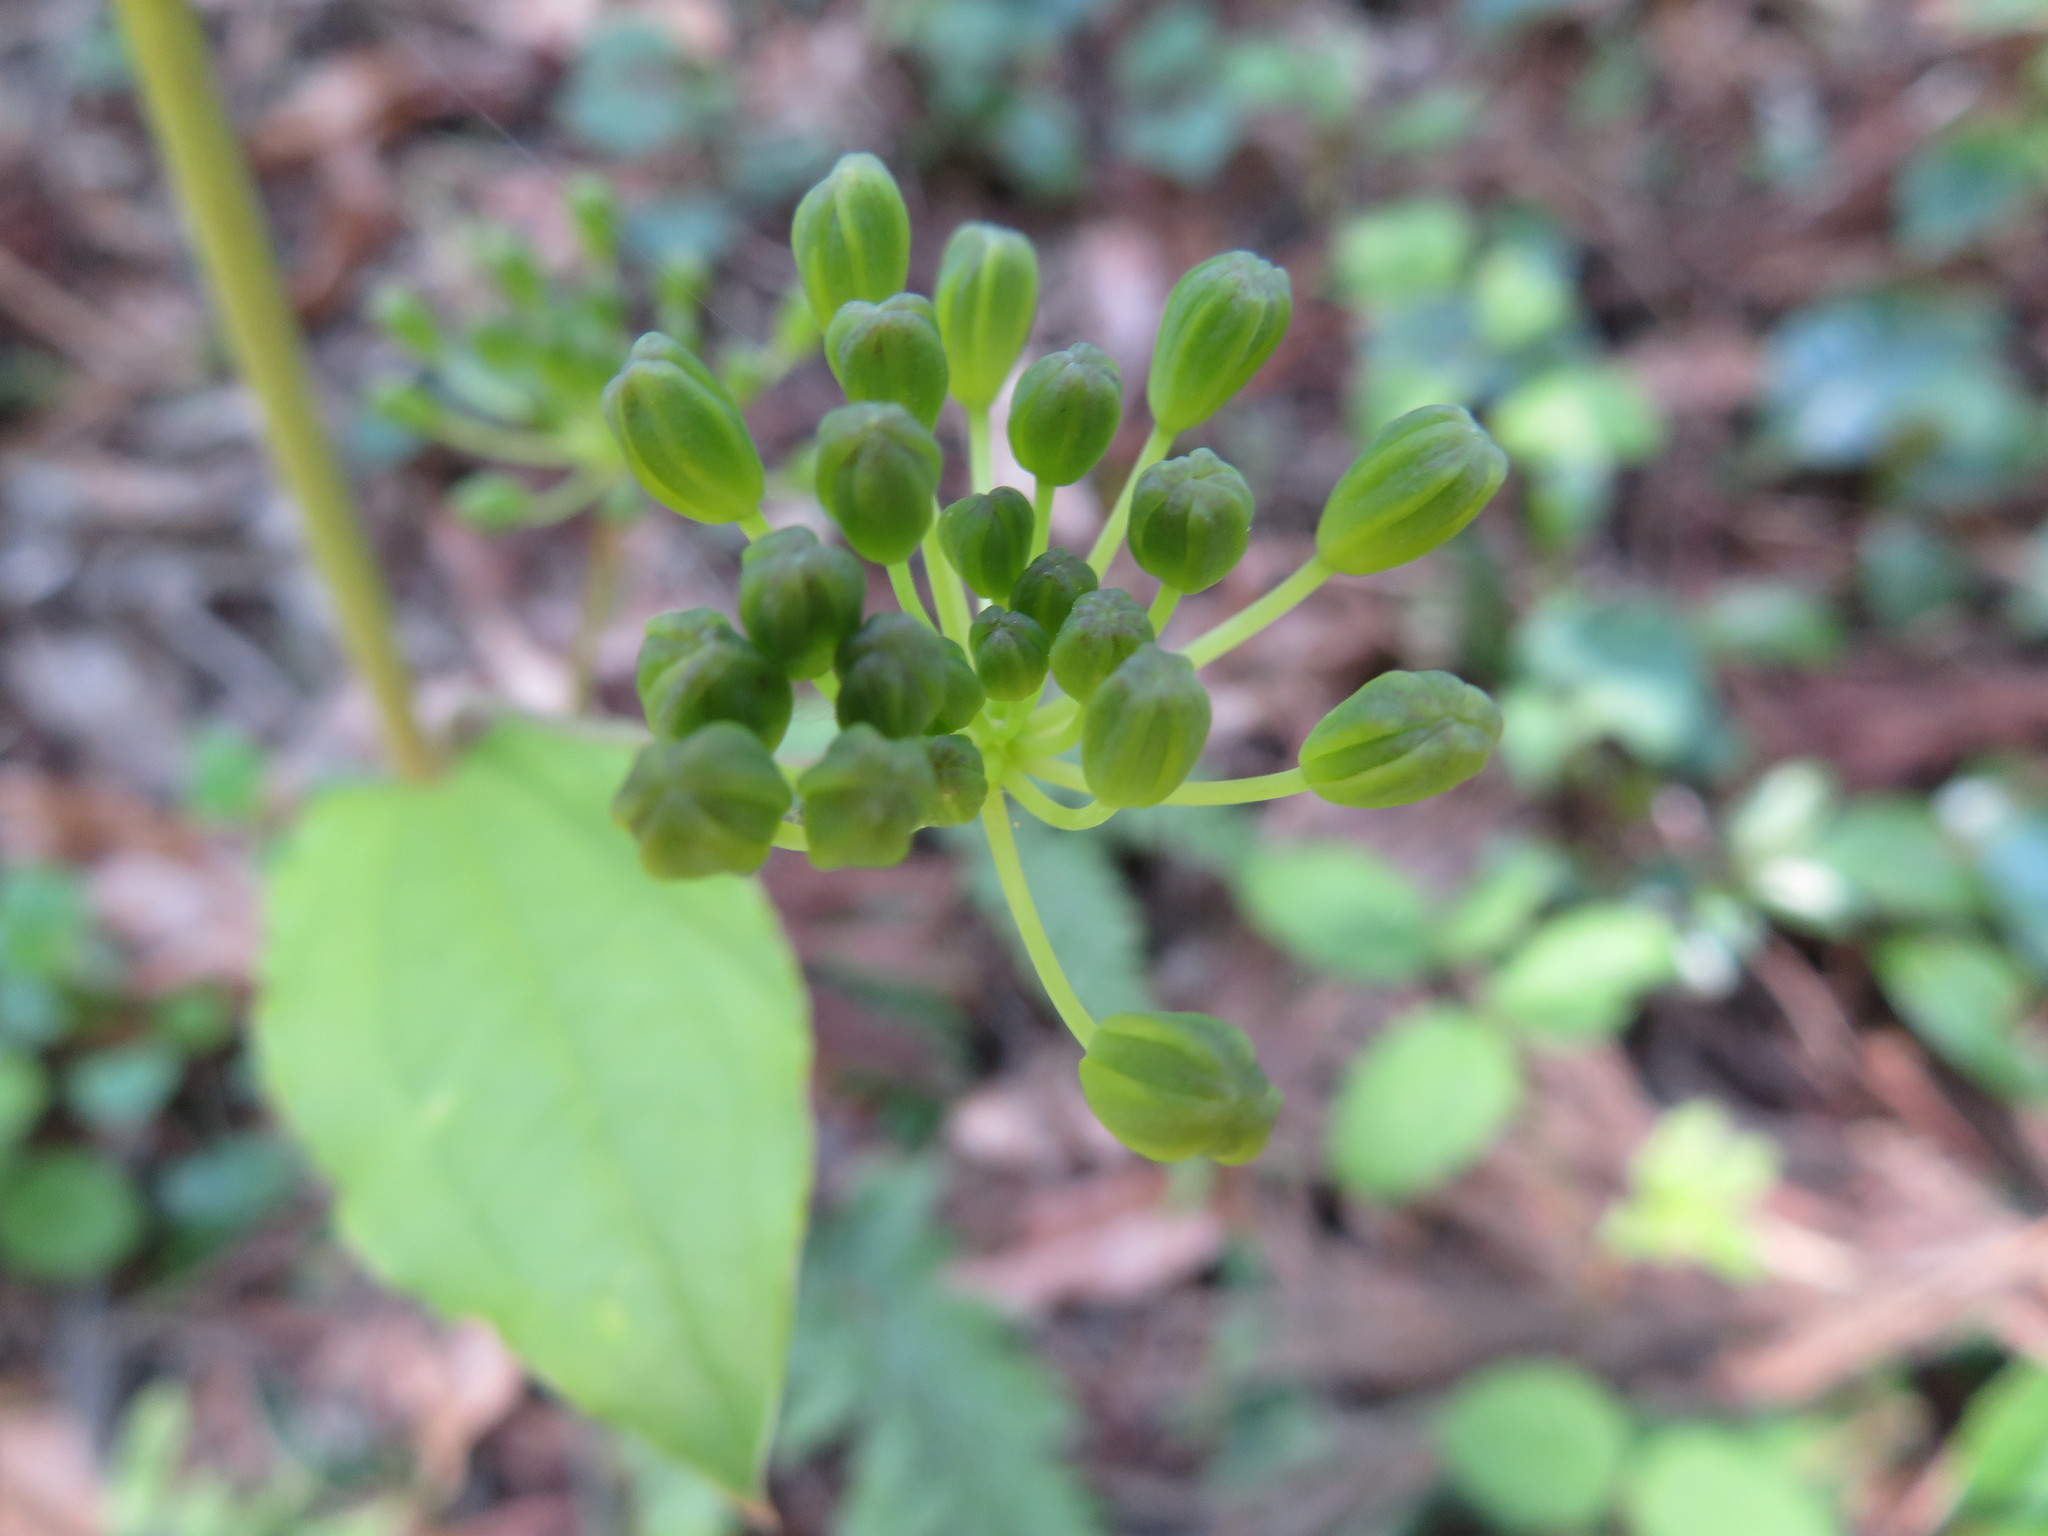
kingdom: Plantae
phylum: Tracheophyta
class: Liliopsida
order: Liliales
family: Smilacaceae
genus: Smilax
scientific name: Smilax riparia
